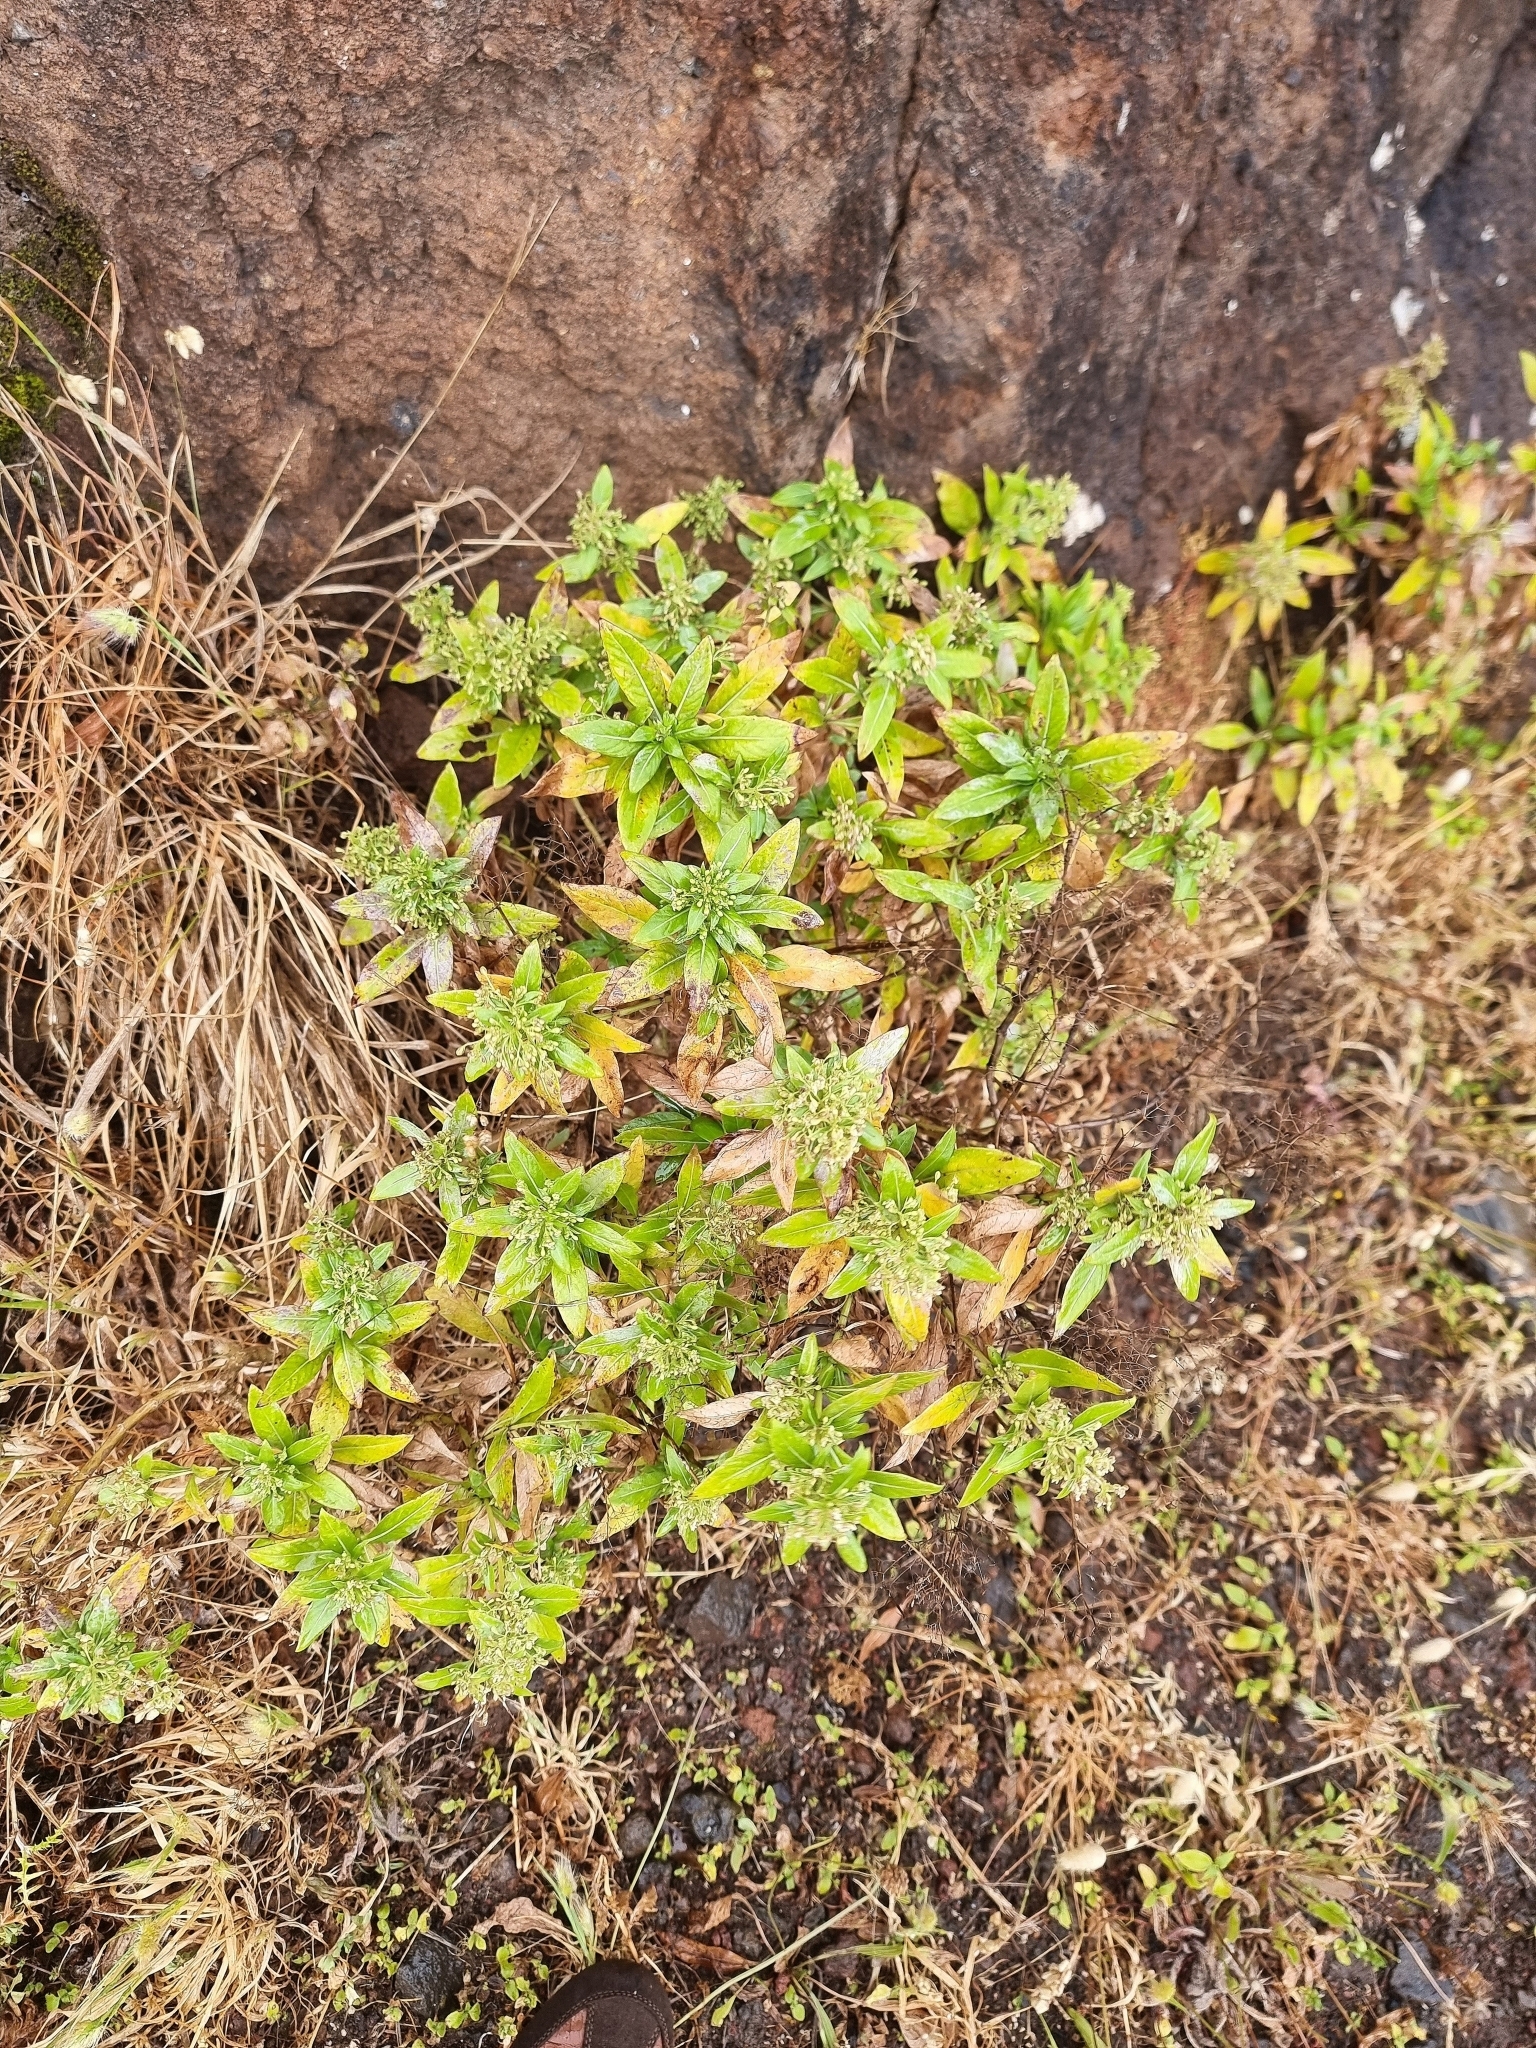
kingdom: Plantae
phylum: Tracheophyta
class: Magnoliopsida
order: Gentianales
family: Rubiaceae
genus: Phyllis
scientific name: Phyllis nobla
